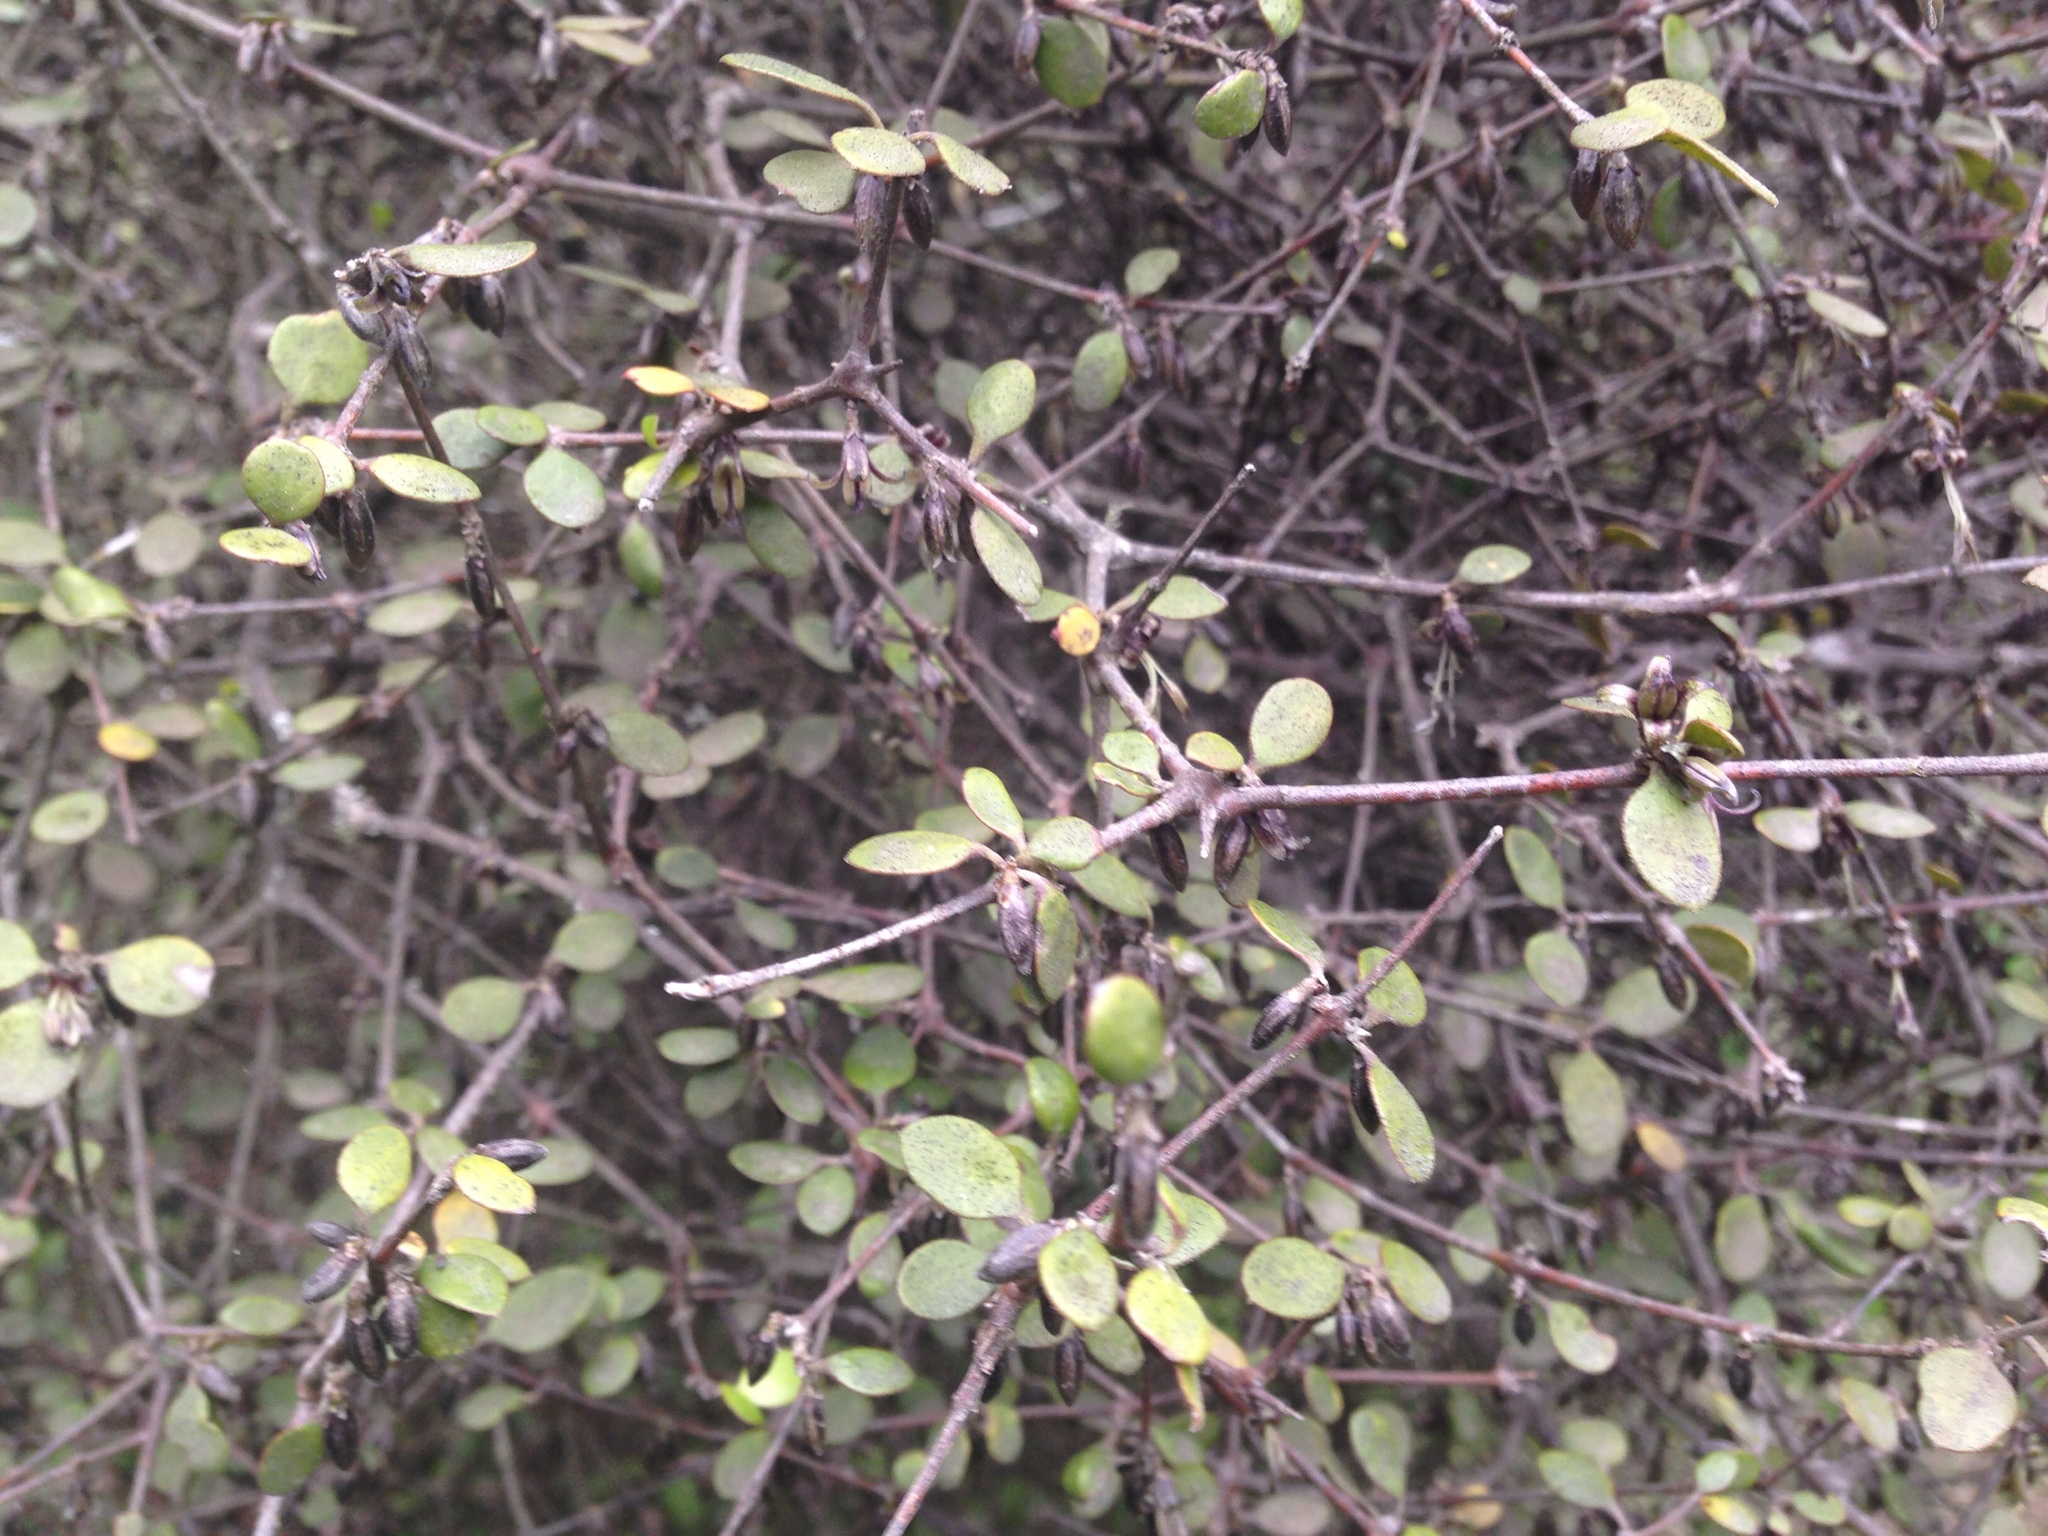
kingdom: Plantae
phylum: Tracheophyta
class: Magnoliopsida
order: Gentianales
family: Rubiaceae
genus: Coprosma
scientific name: Coprosma crassifolia
